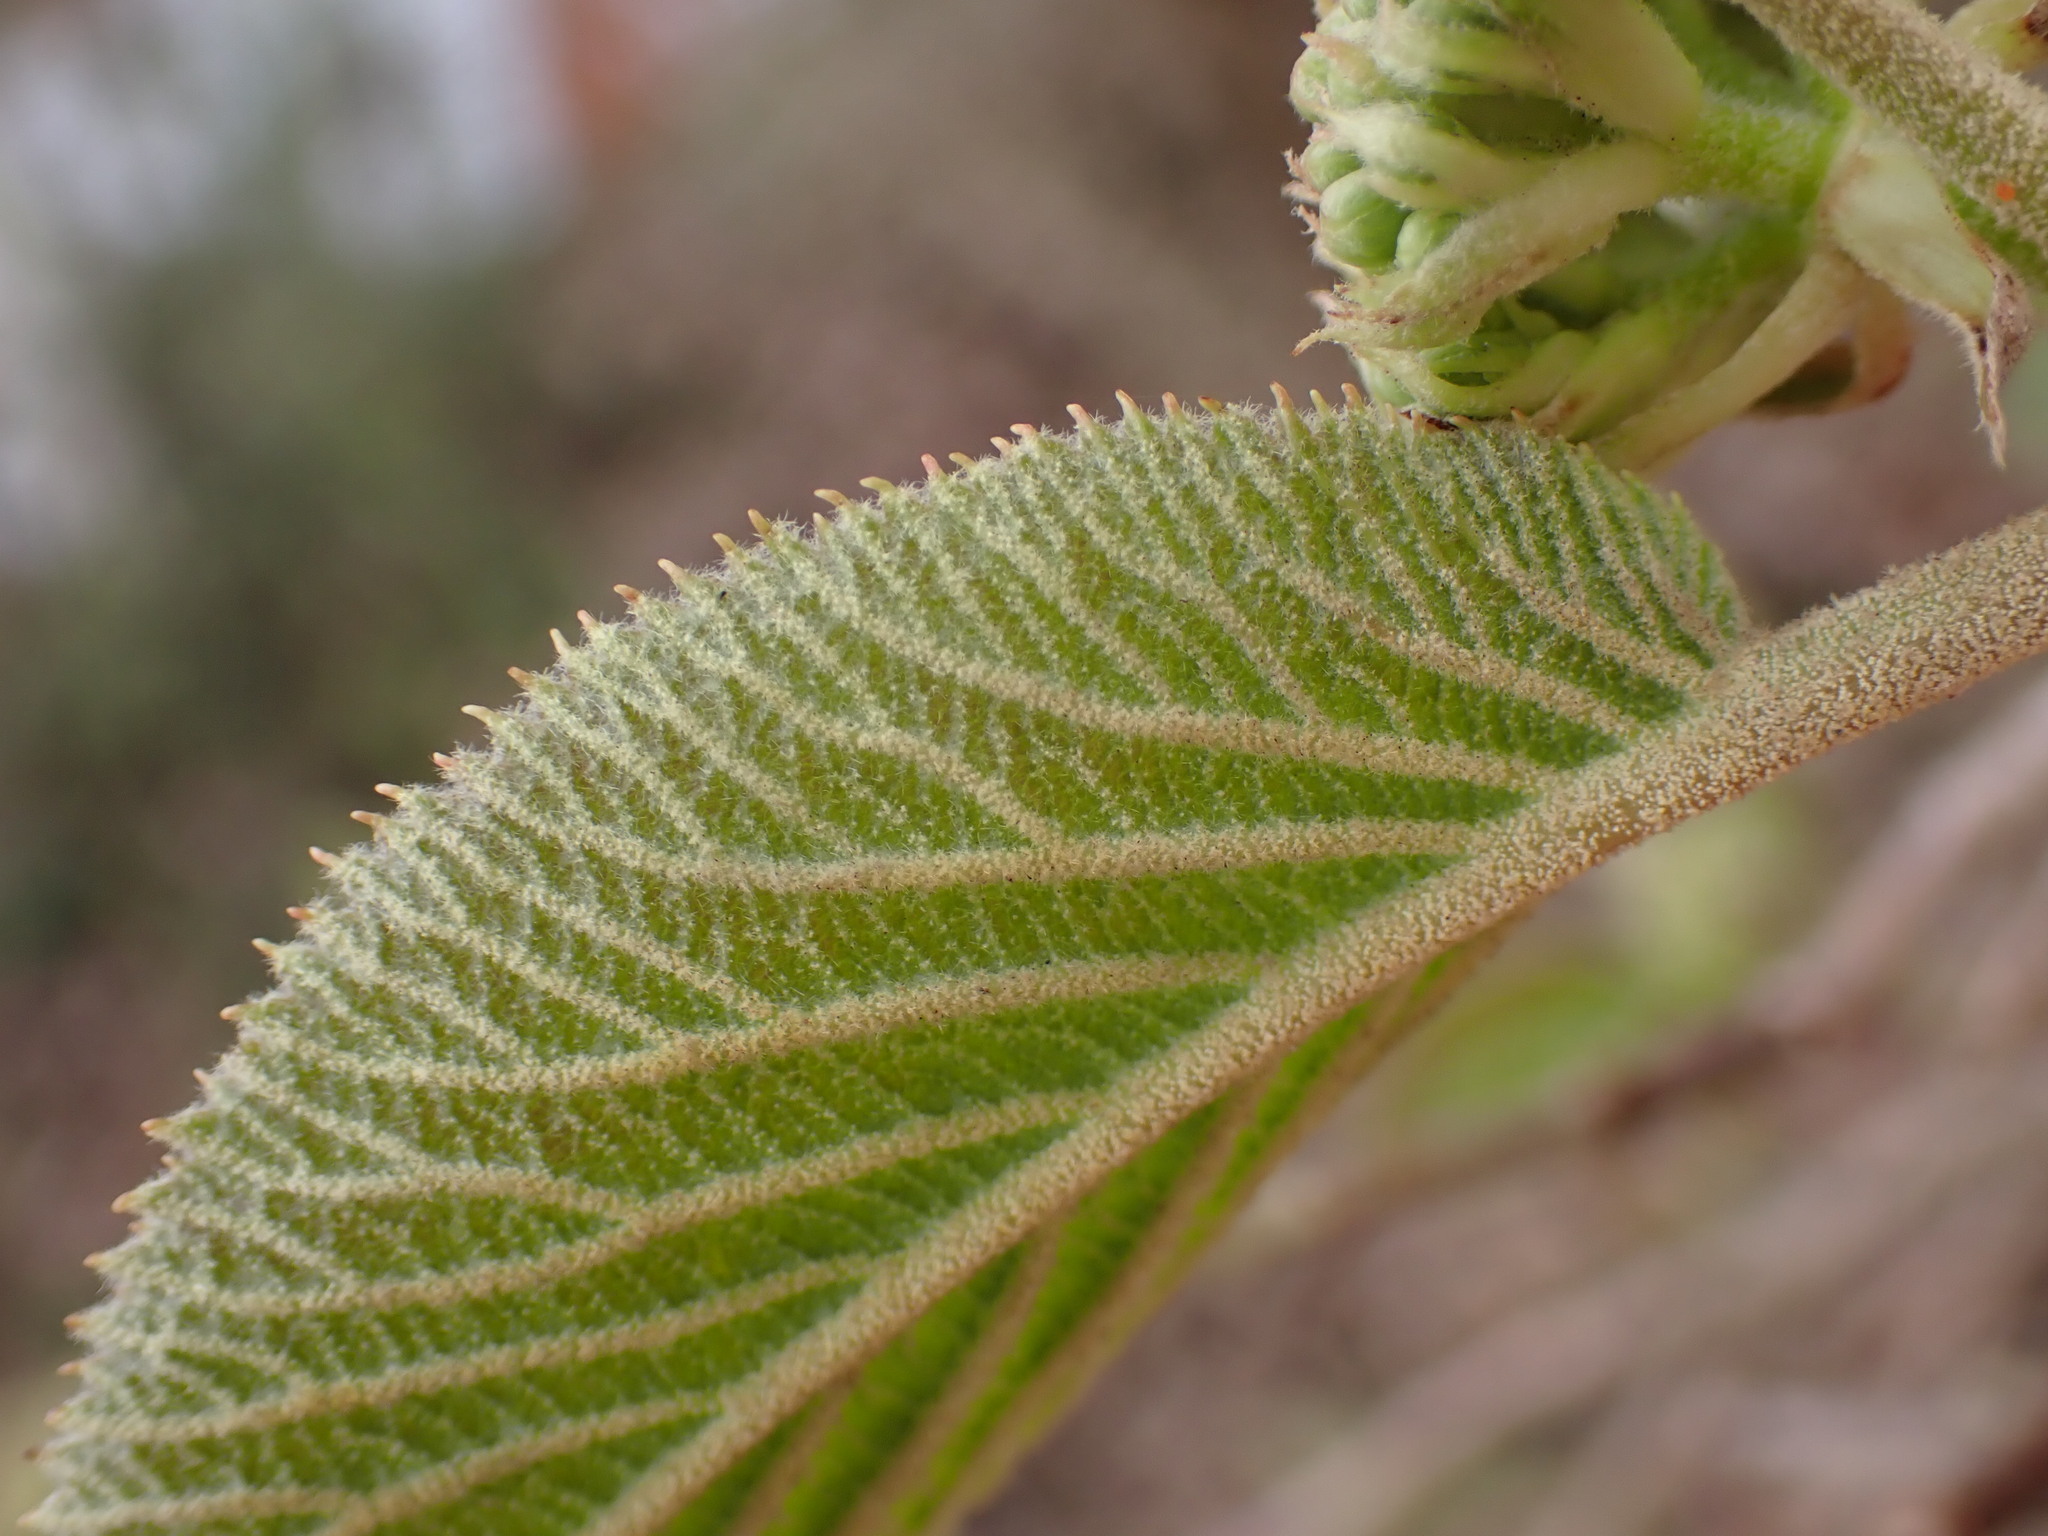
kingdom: Plantae
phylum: Tracheophyta
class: Magnoliopsida
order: Dipsacales
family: Viburnaceae
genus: Viburnum
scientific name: Viburnum lantana
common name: Wayfaring tree
